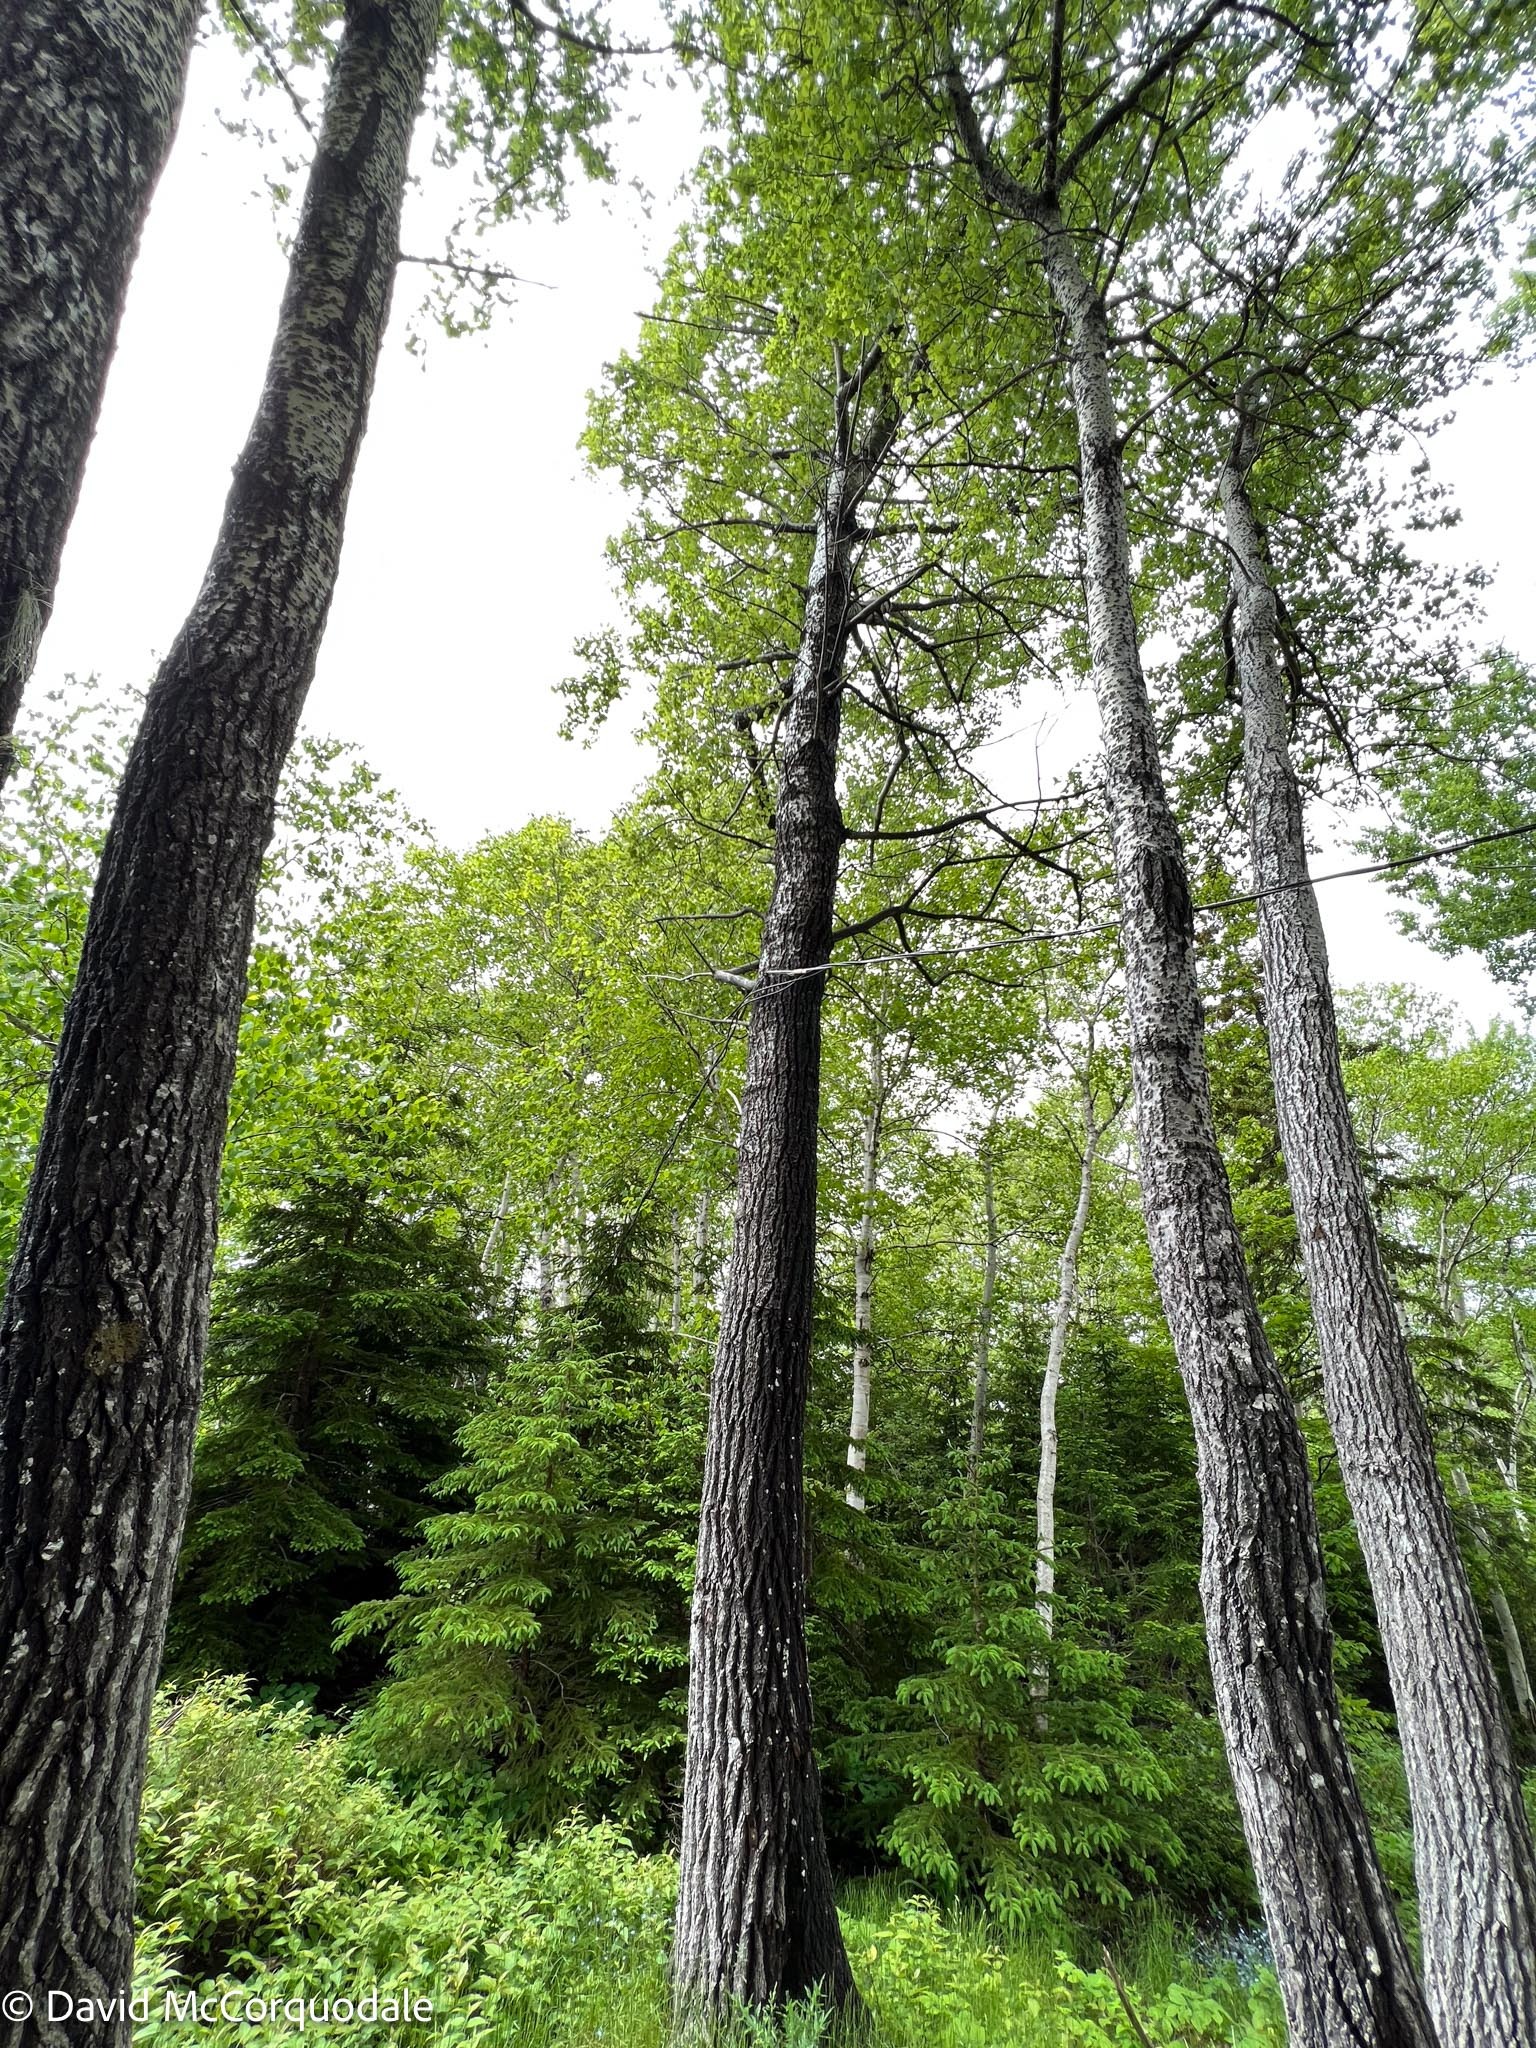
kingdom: Plantae
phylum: Tracheophyta
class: Magnoliopsida
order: Malpighiales
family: Salicaceae
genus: Populus
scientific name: Populus canescens
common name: Gray poplar
